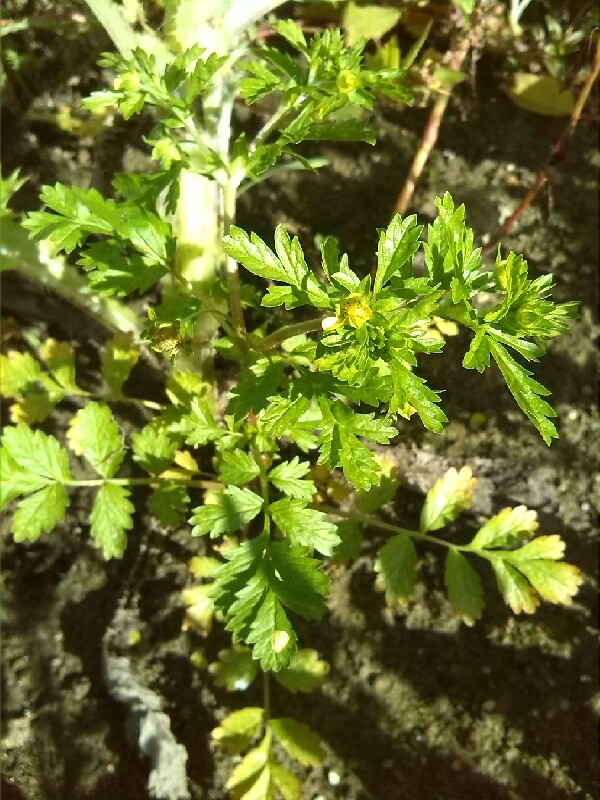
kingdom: Plantae
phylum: Tracheophyta
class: Magnoliopsida
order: Rosales
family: Rosaceae
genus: Potentilla
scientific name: Potentilla supina
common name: Prostrate cinquefoil
